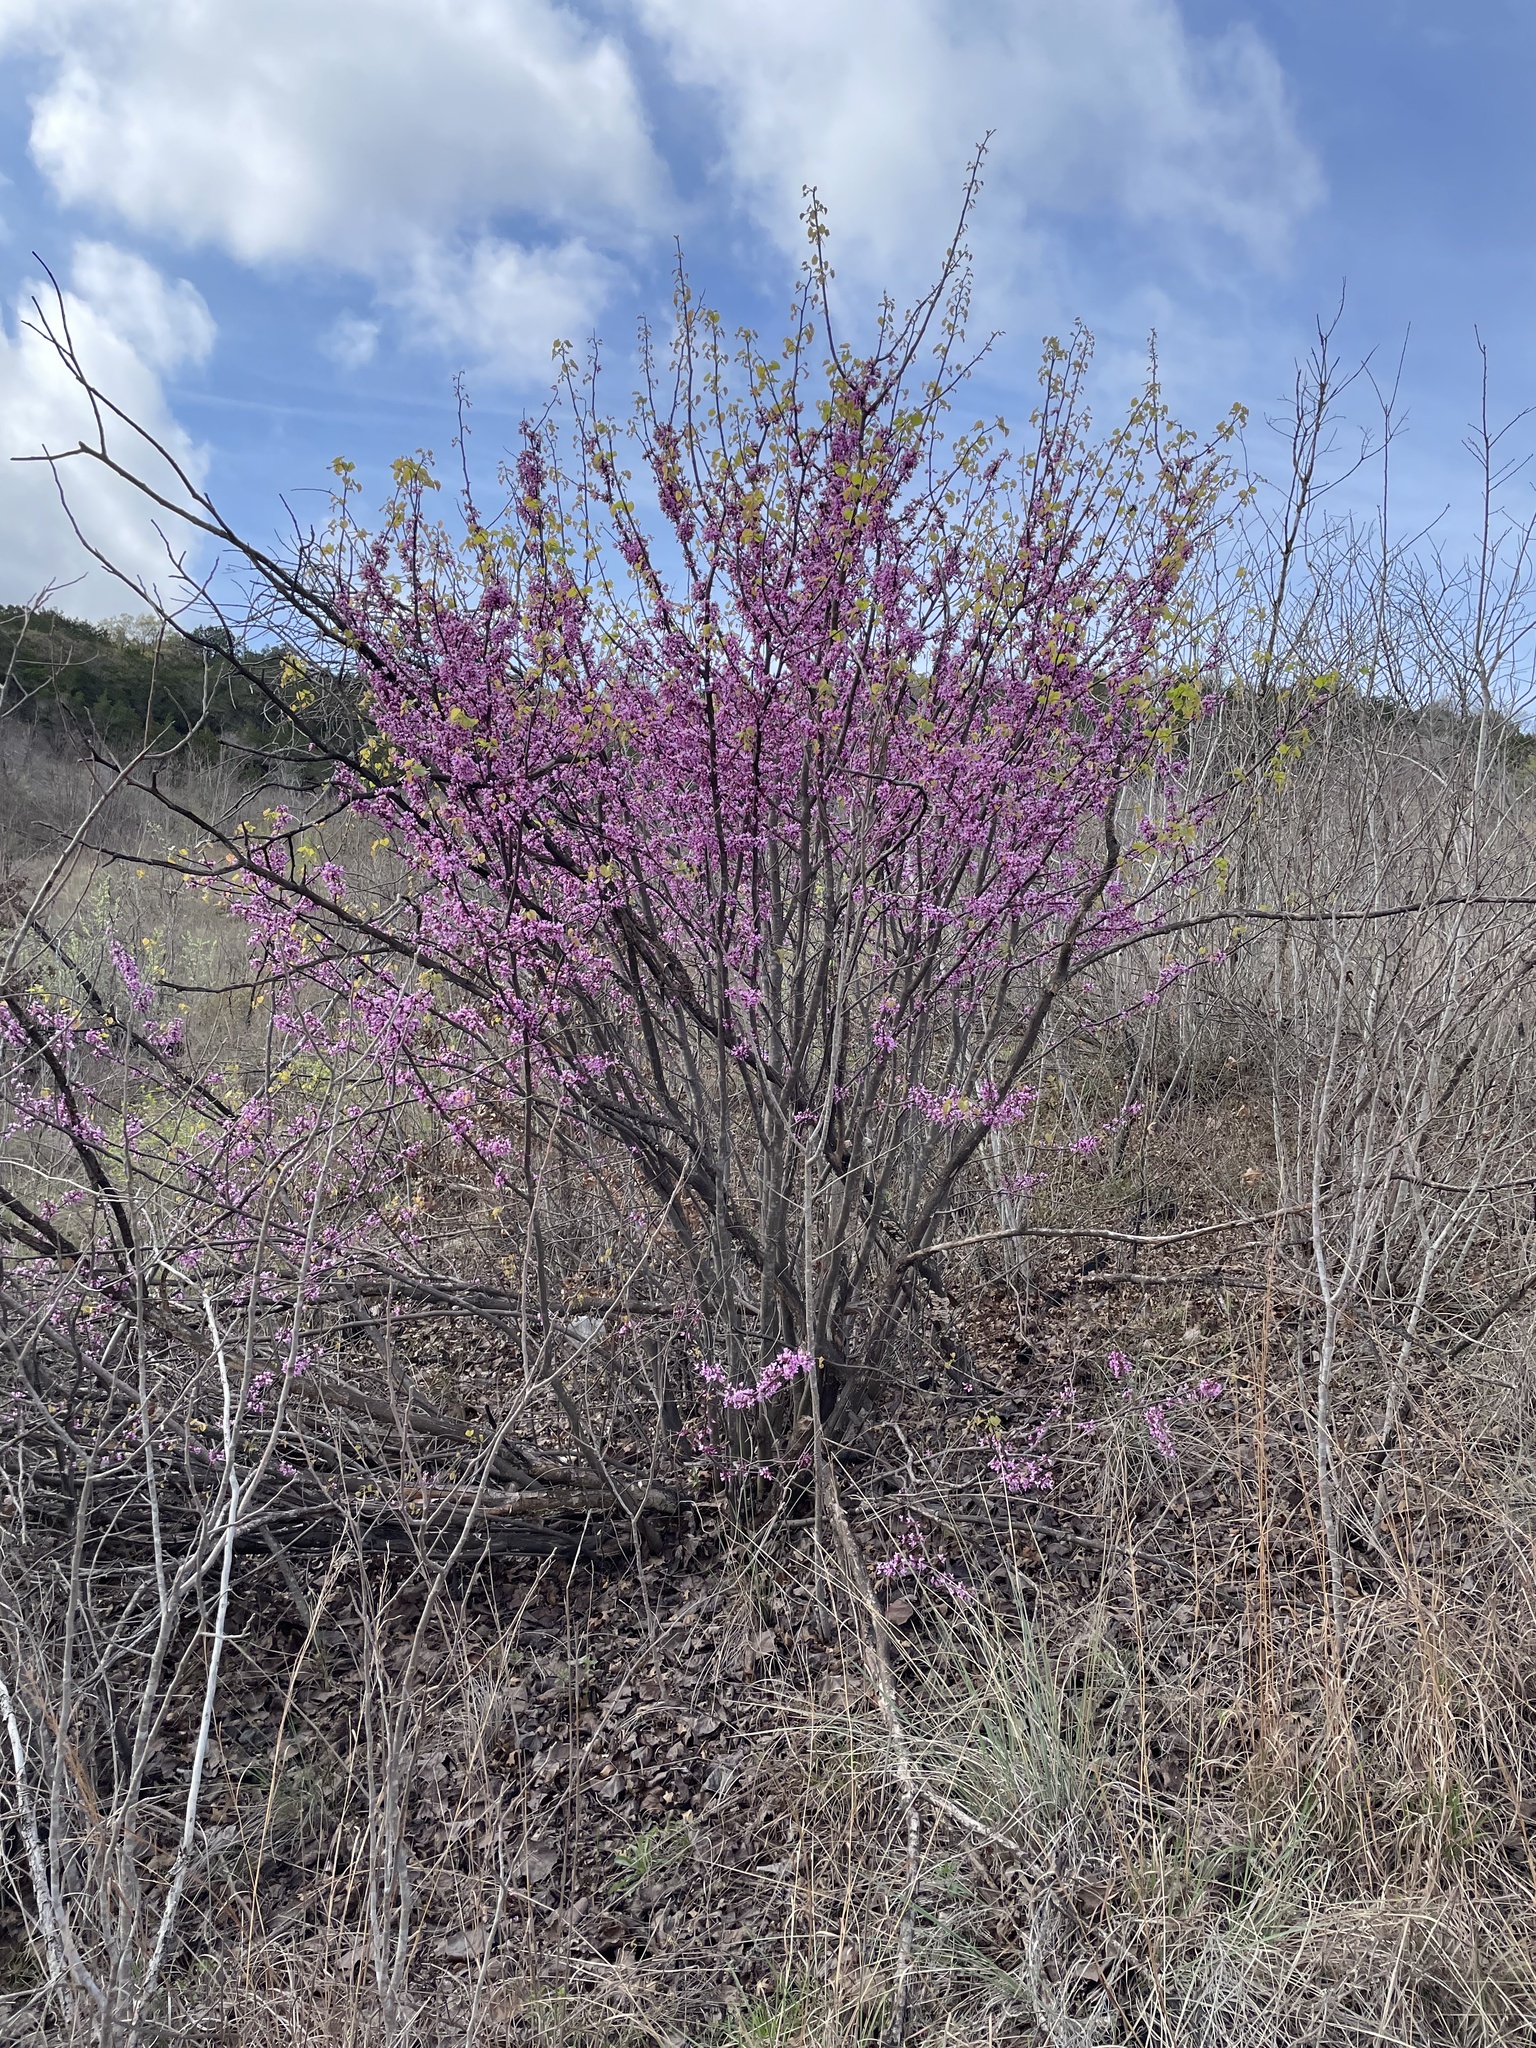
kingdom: Plantae
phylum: Tracheophyta
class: Magnoliopsida
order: Fabales
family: Fabaceae
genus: Cercis
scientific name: Cercis canadensis
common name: Eastern redbud
